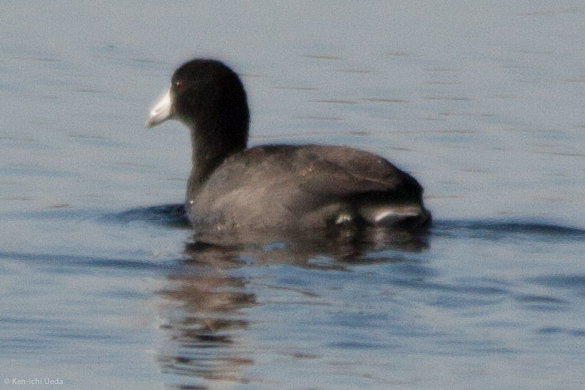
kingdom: Animalia
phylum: Chordata
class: Aves
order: Gruiformes
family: Rallidae
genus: Fulica
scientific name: Fulica americana
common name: American coot
